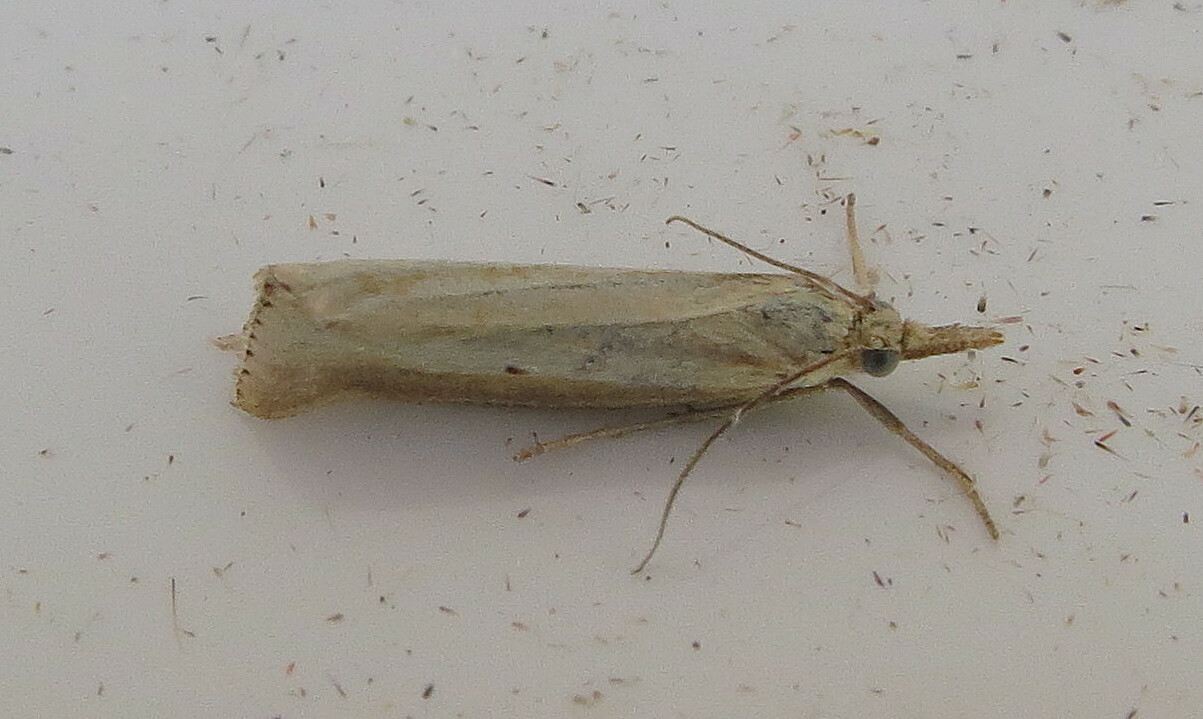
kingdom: Animalia
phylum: Arthropoda
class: Insecta
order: Lepidoptera
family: Crambidae
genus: Agriphila
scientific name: Agriphila straminella
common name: Straw grass-veneer
